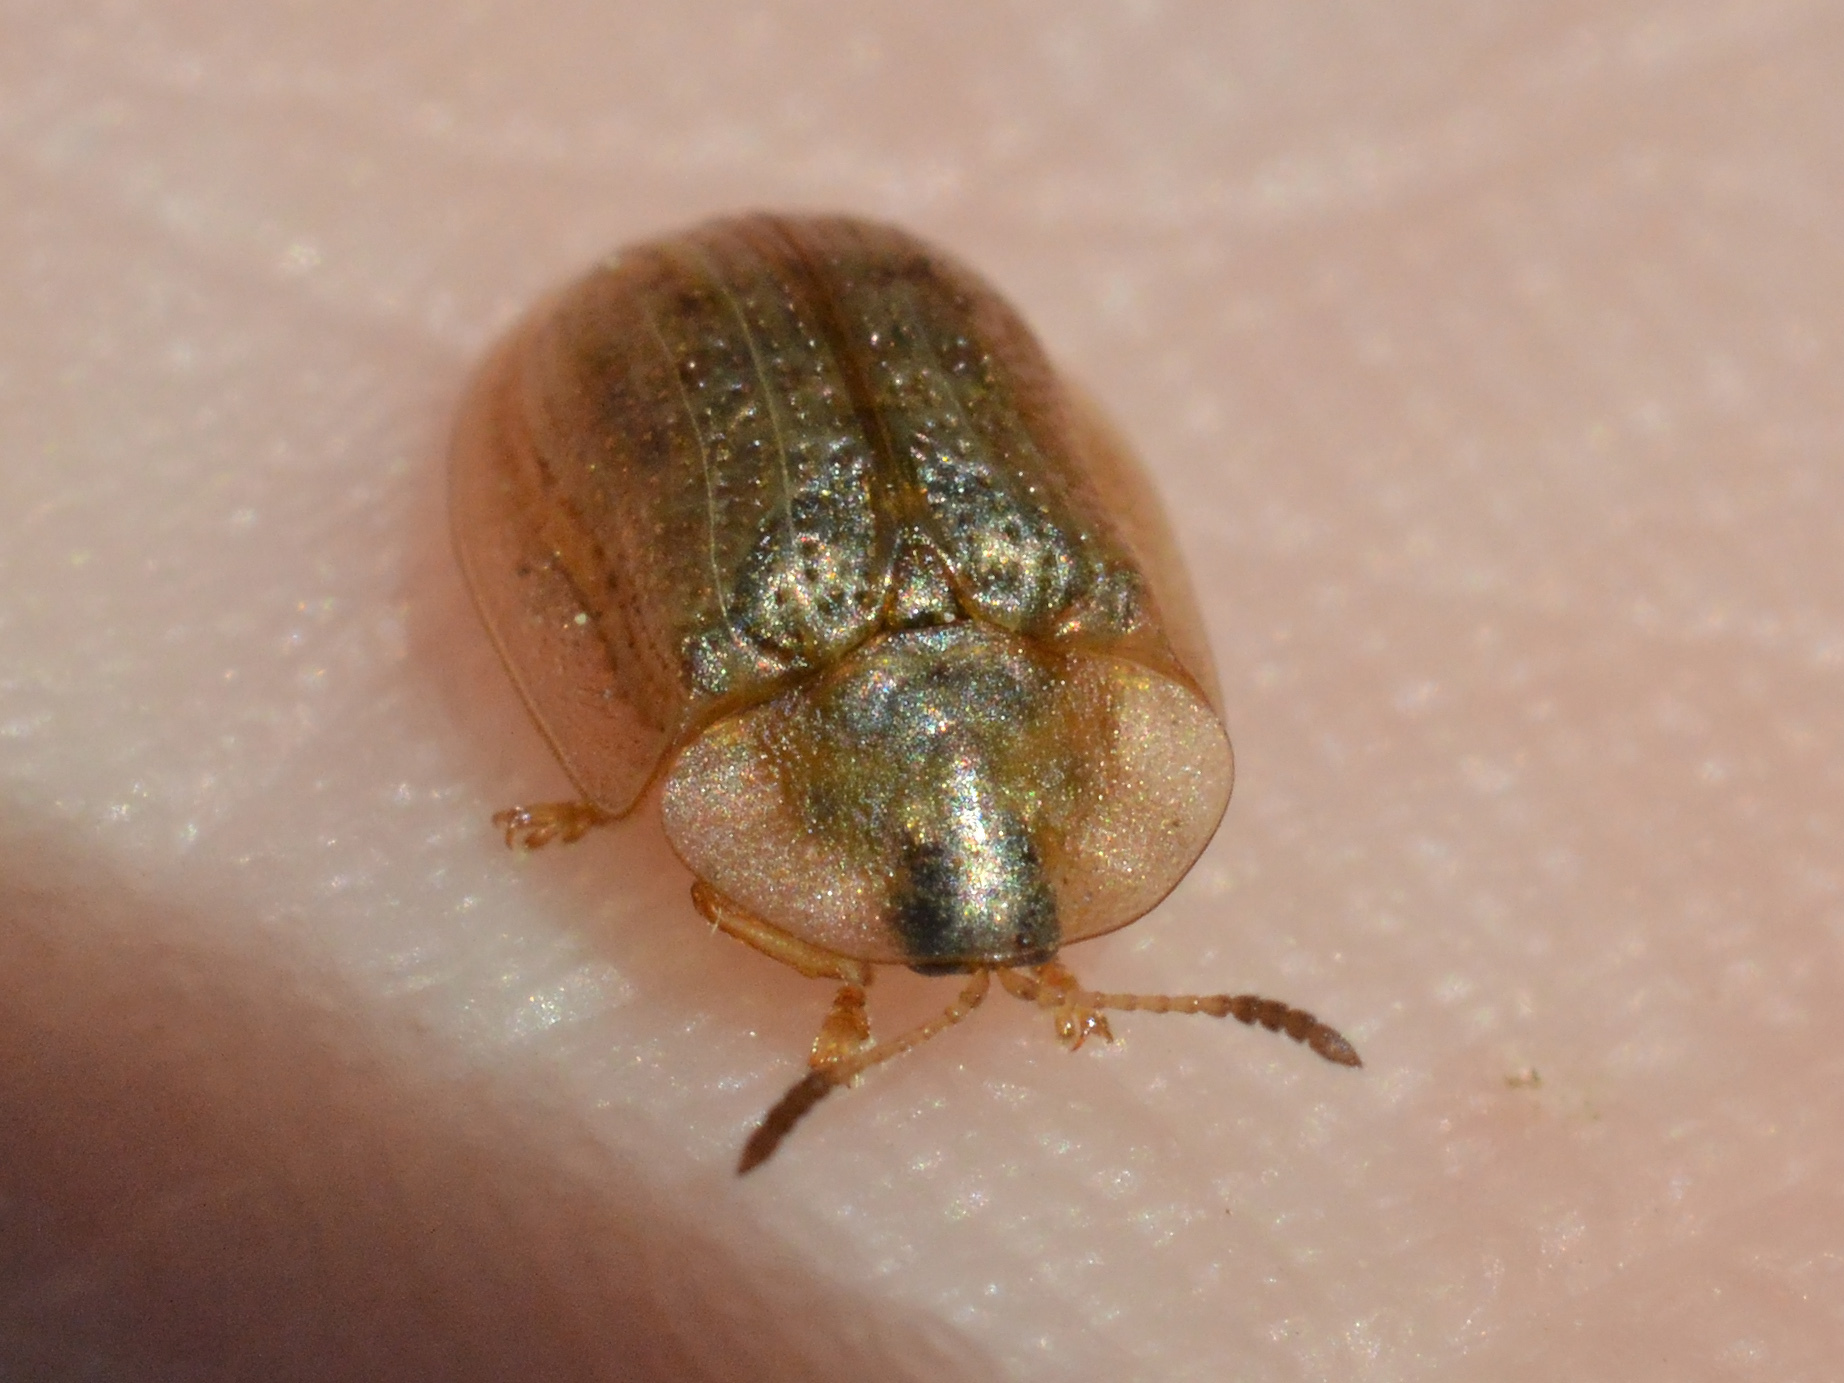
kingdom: Animalia
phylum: Arthropoda
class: Insecta
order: Coleoptera
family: Chrysomelidae
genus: Cassida
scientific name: Cassida flaveola
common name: Pale tortoise beetle
